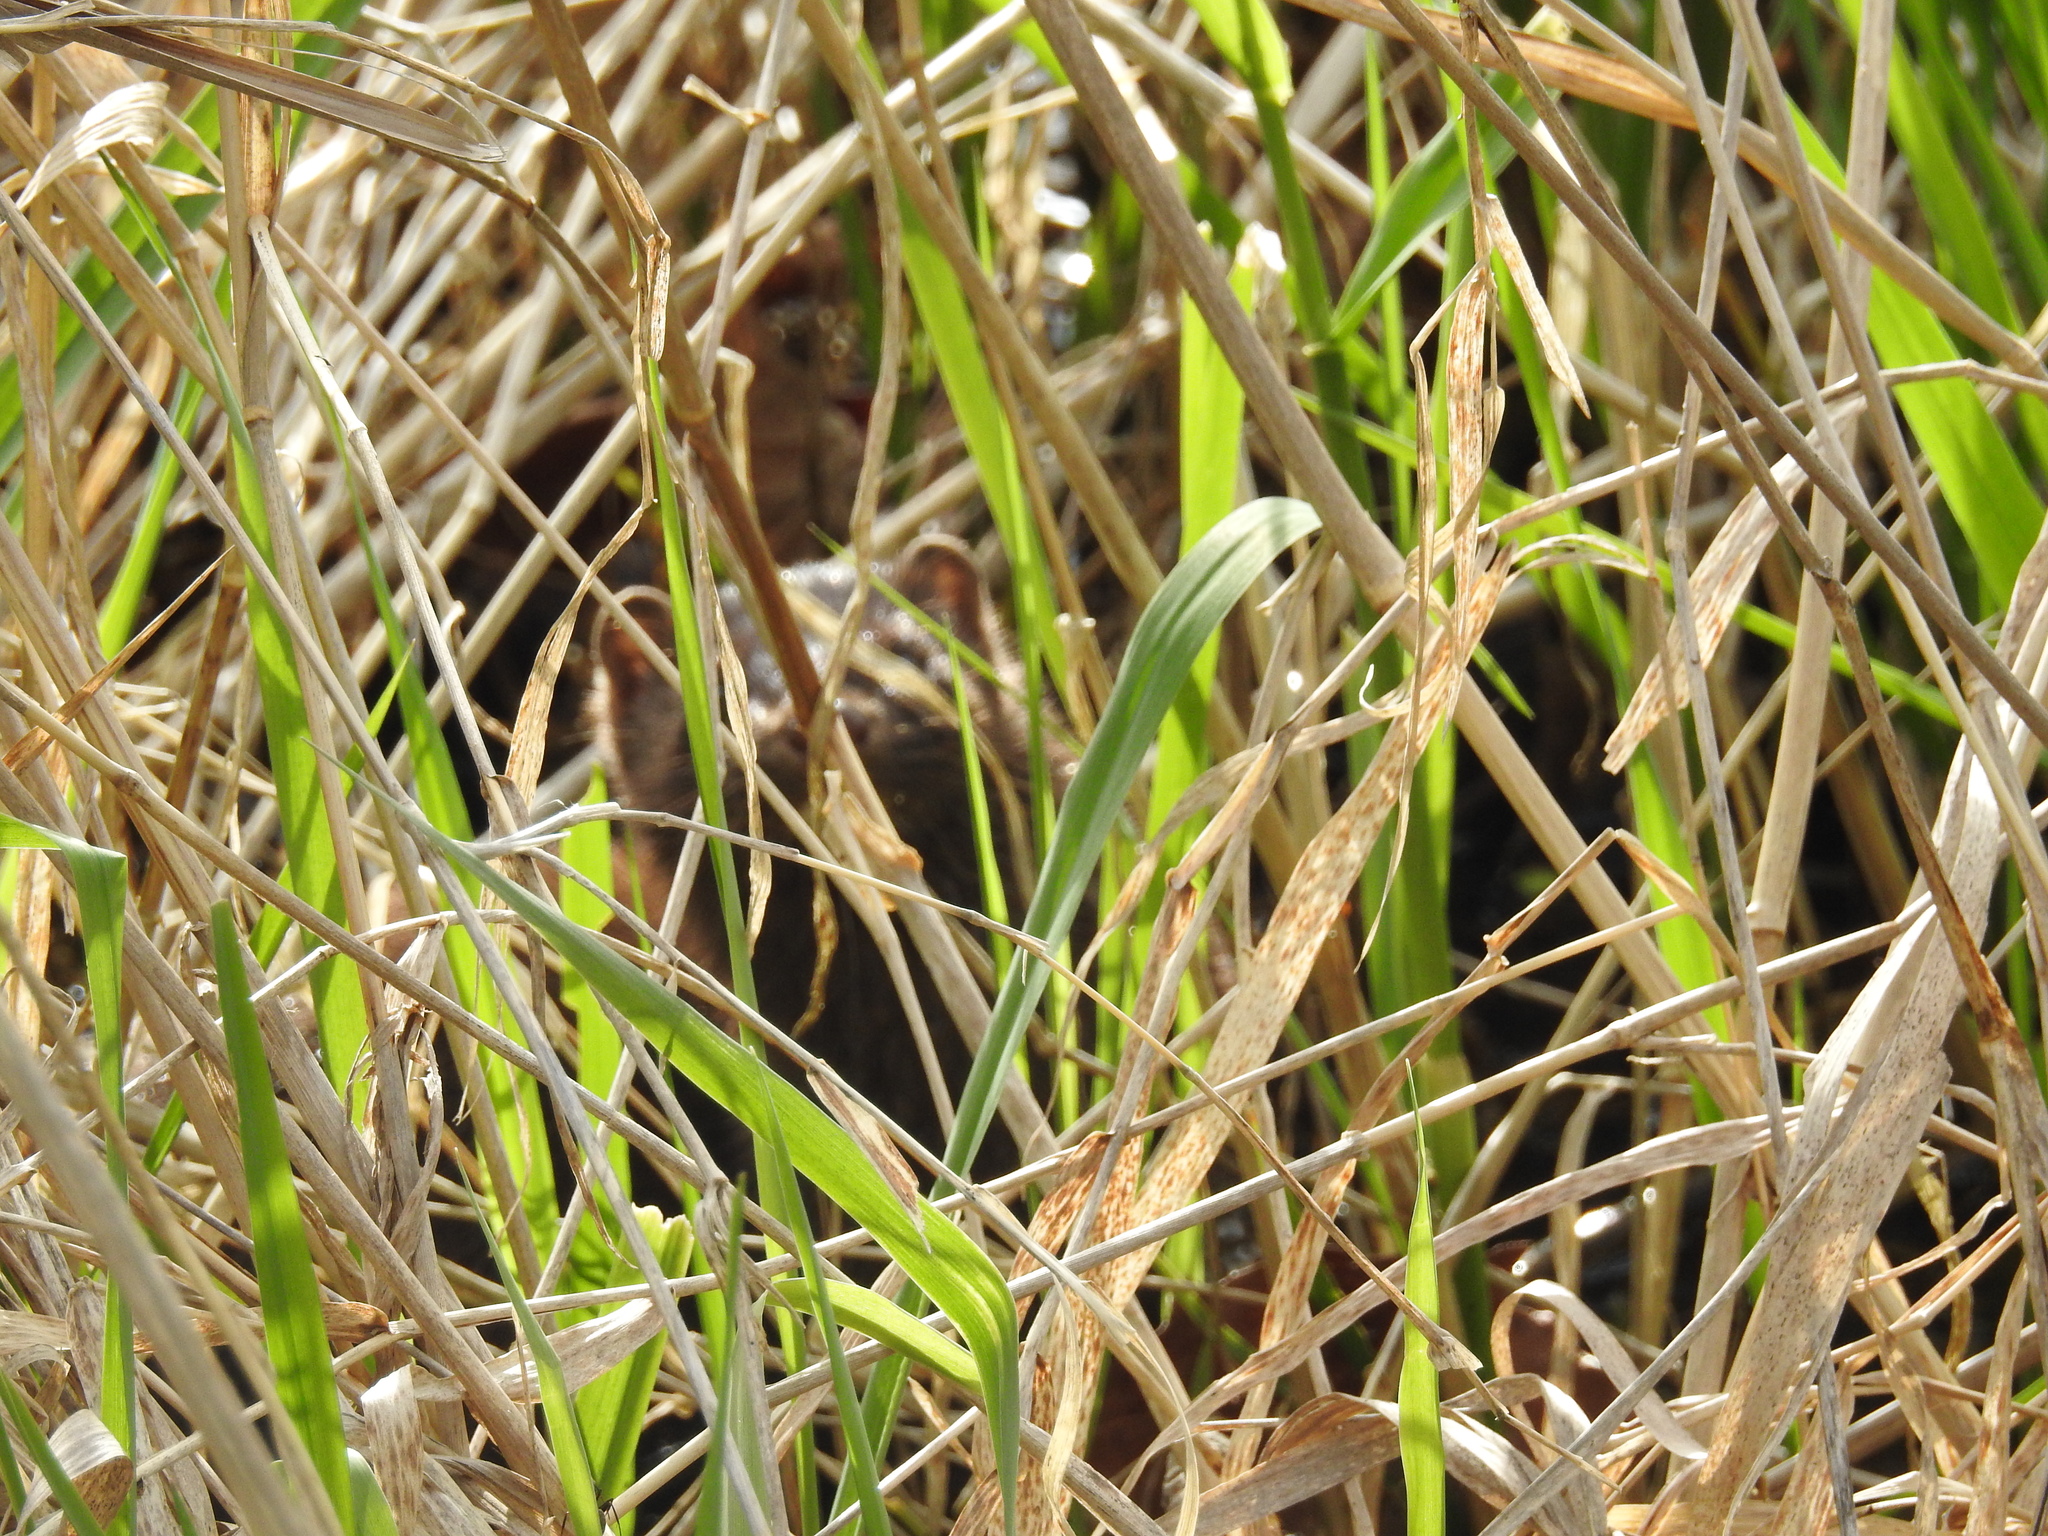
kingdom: Animalia
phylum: Chordata
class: Mammalia
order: Carnivora
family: Mustelidae
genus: Mustela
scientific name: Mustela
